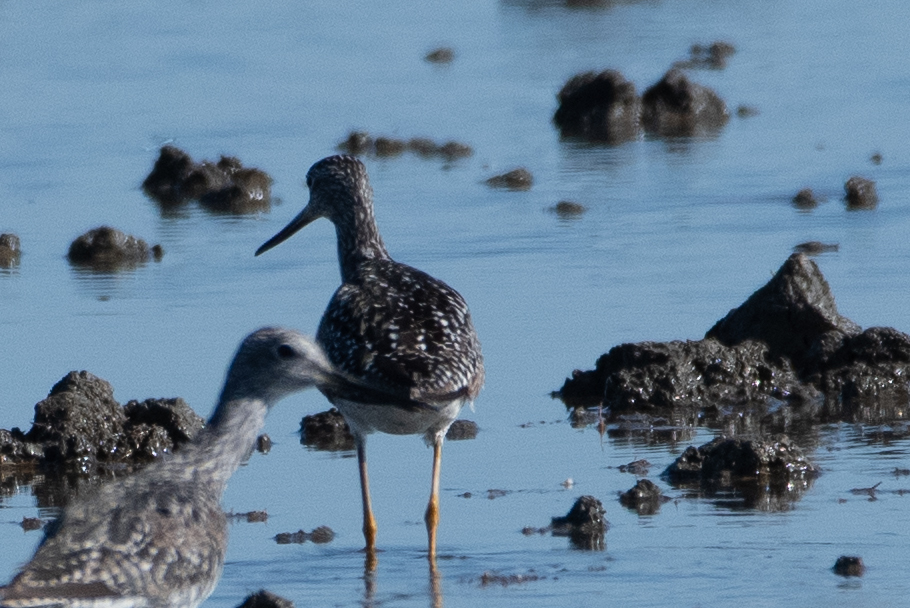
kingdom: Animalia
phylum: Chordata
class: Aves
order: Charadriiformes
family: Scolopacidae
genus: Tringa
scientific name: Tringa melanoleuca
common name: Greater yellowlegs
